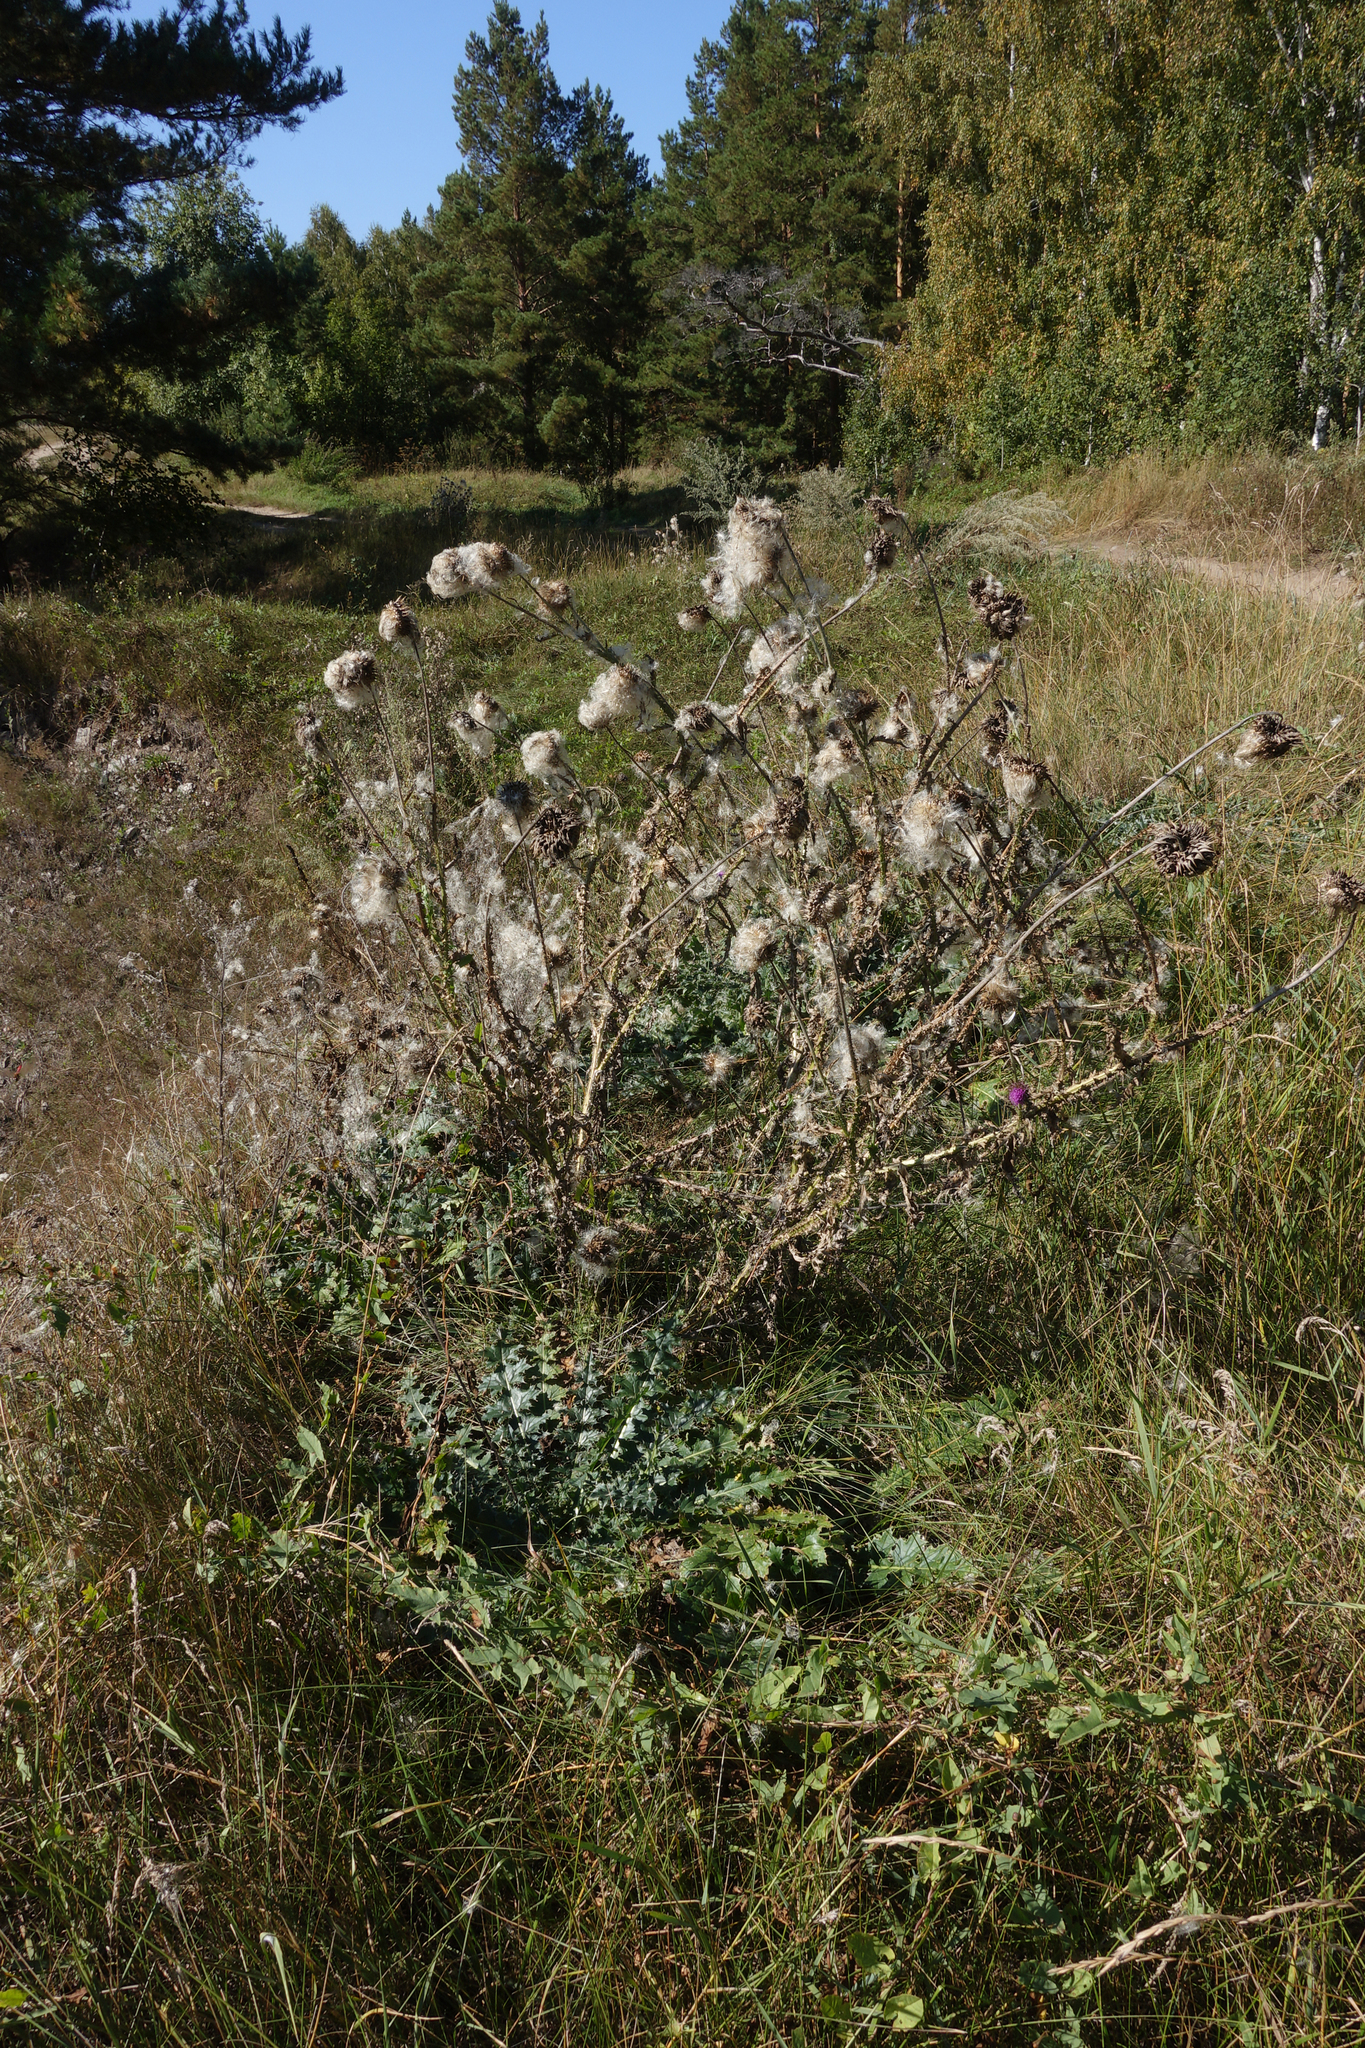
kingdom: Plantae
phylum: Tracheophyta
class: Magnoliopsida
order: Asterales
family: Asteraceae
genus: Carduus
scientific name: Carduus nutans
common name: Musk thistle
